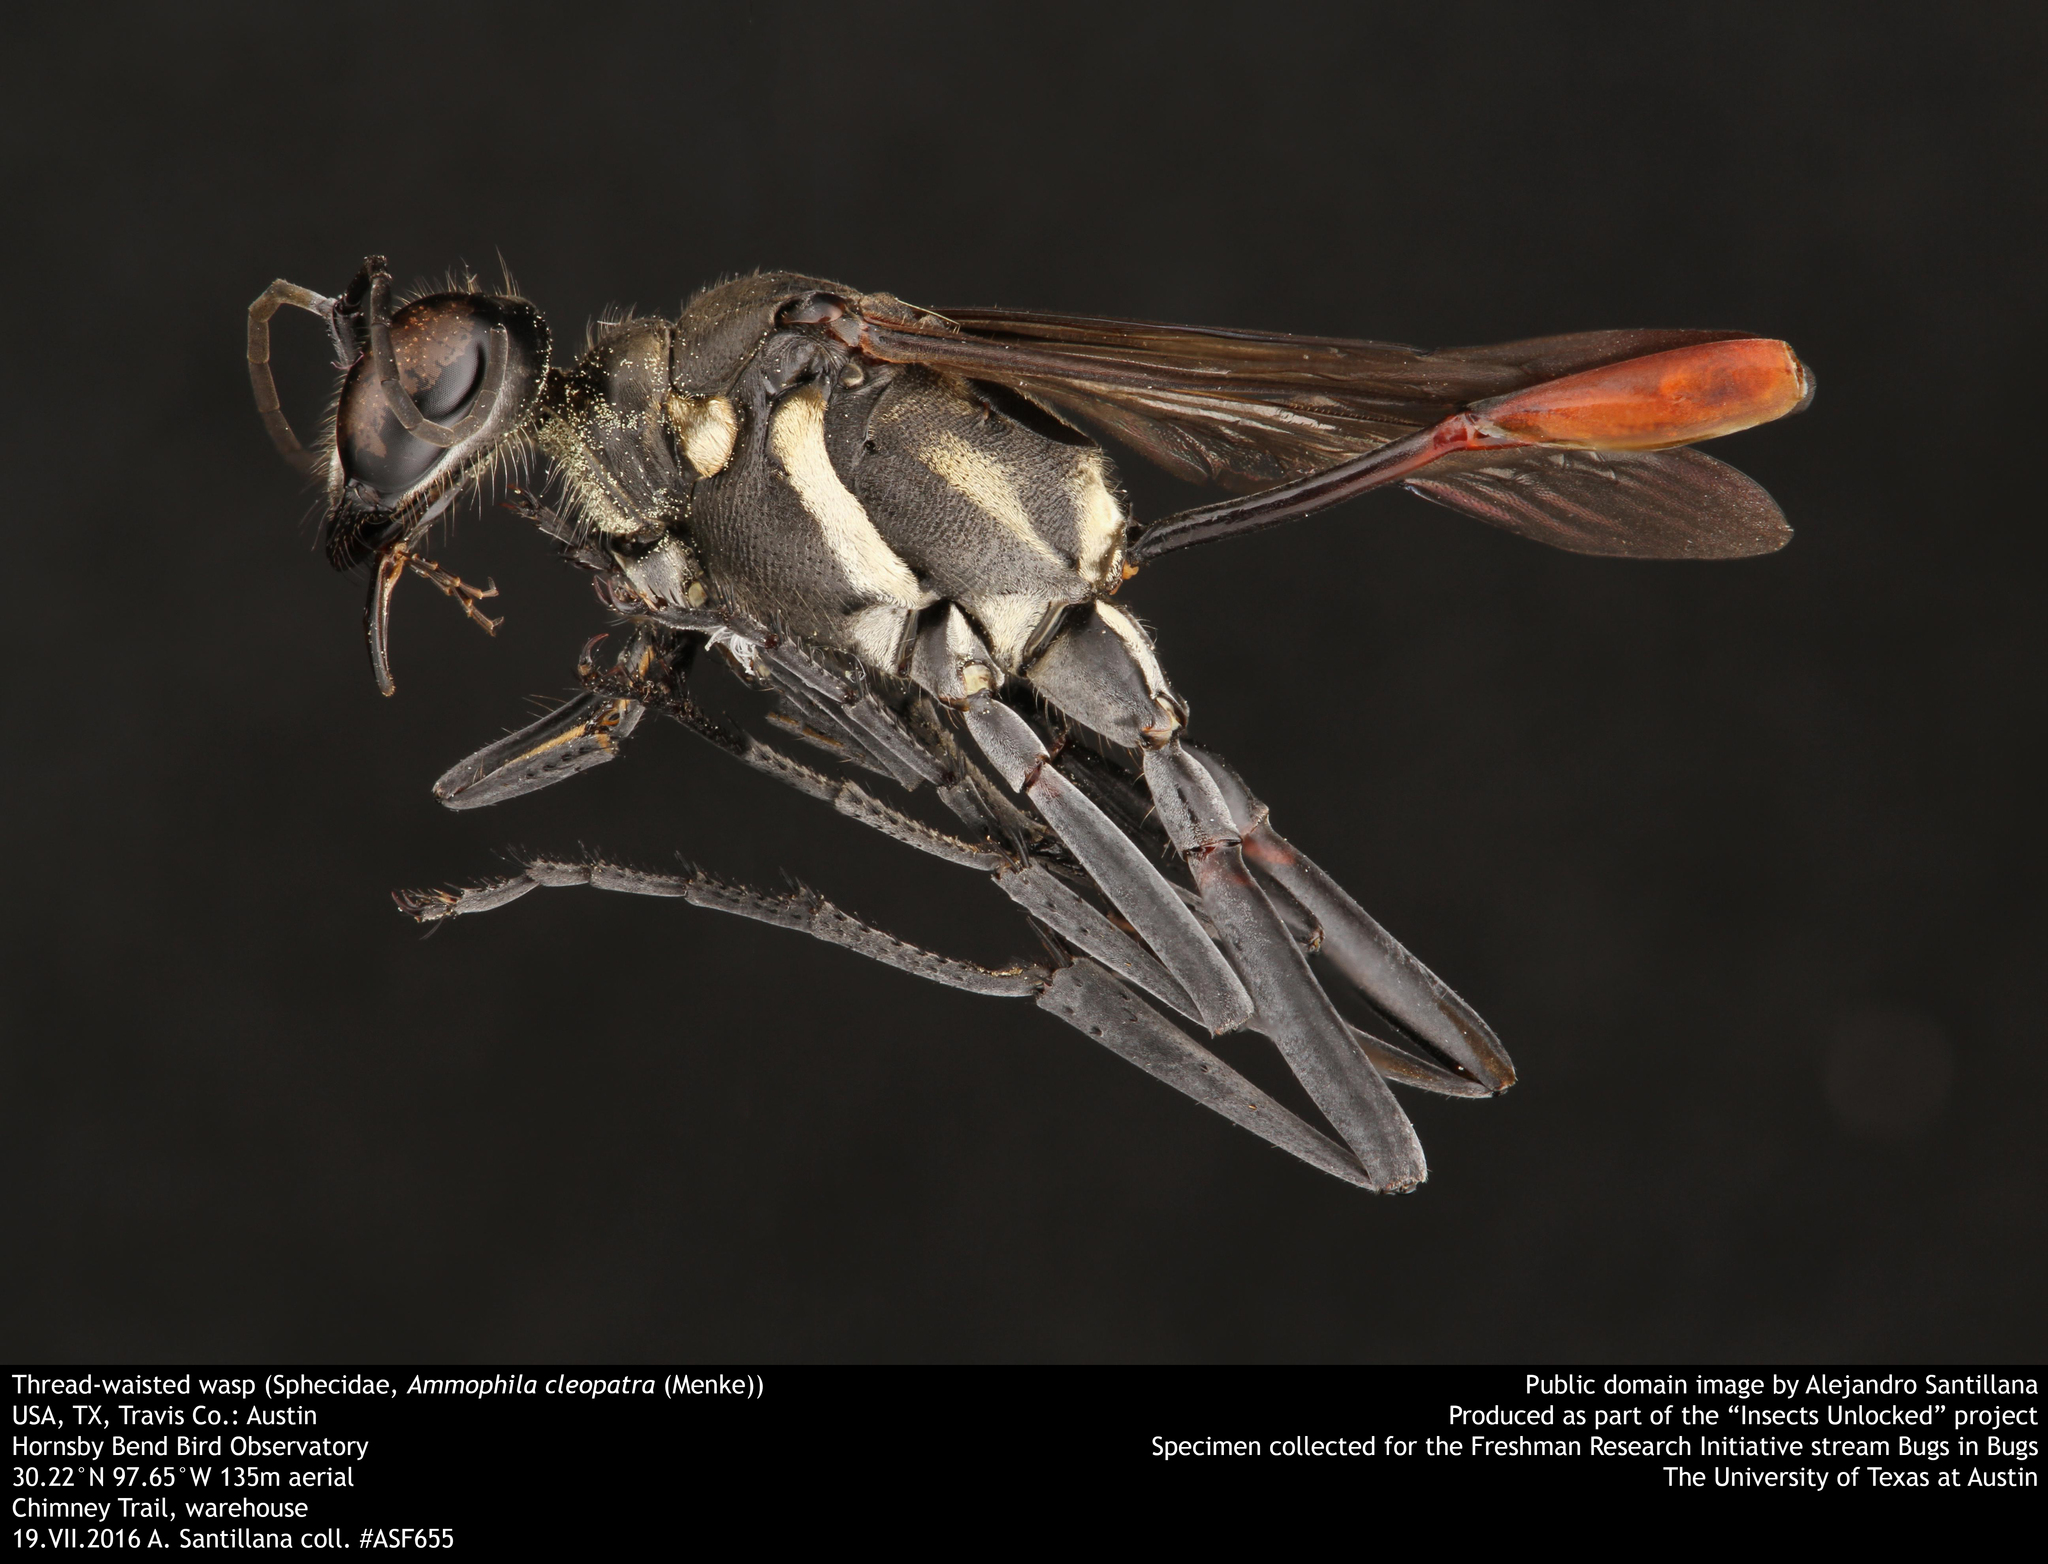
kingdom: Animalia
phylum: Arthropoda
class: Insecta
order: Hymenoptera
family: Sphecidae
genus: Ammophila
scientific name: Ammophila cleopatra
